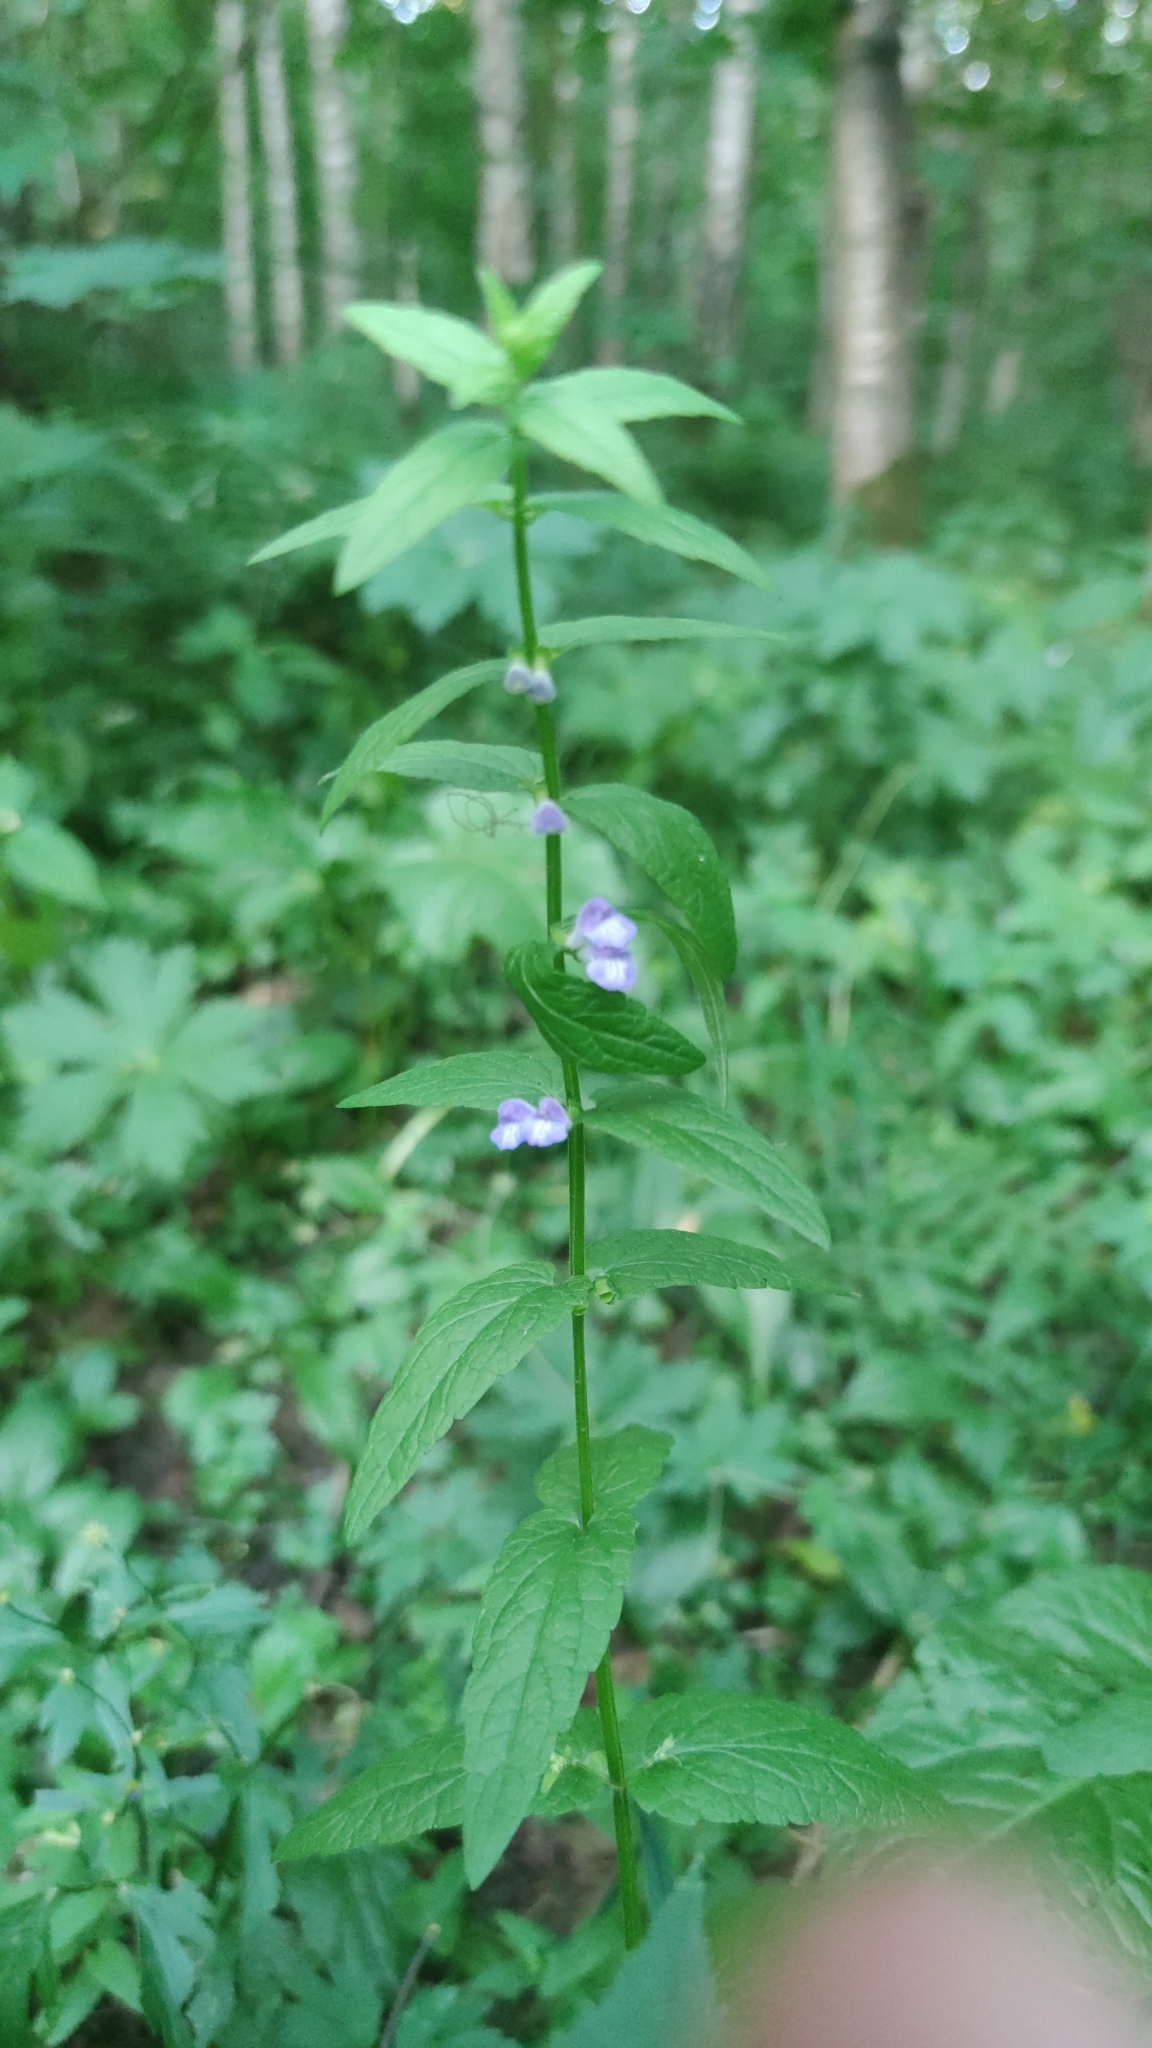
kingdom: Plantae
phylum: Tracheophyta
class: Magnoliopsida
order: Lamiales
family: Lamiaceae
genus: Scutellaria
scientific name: Scutellaria galericulata
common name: Skullcap
